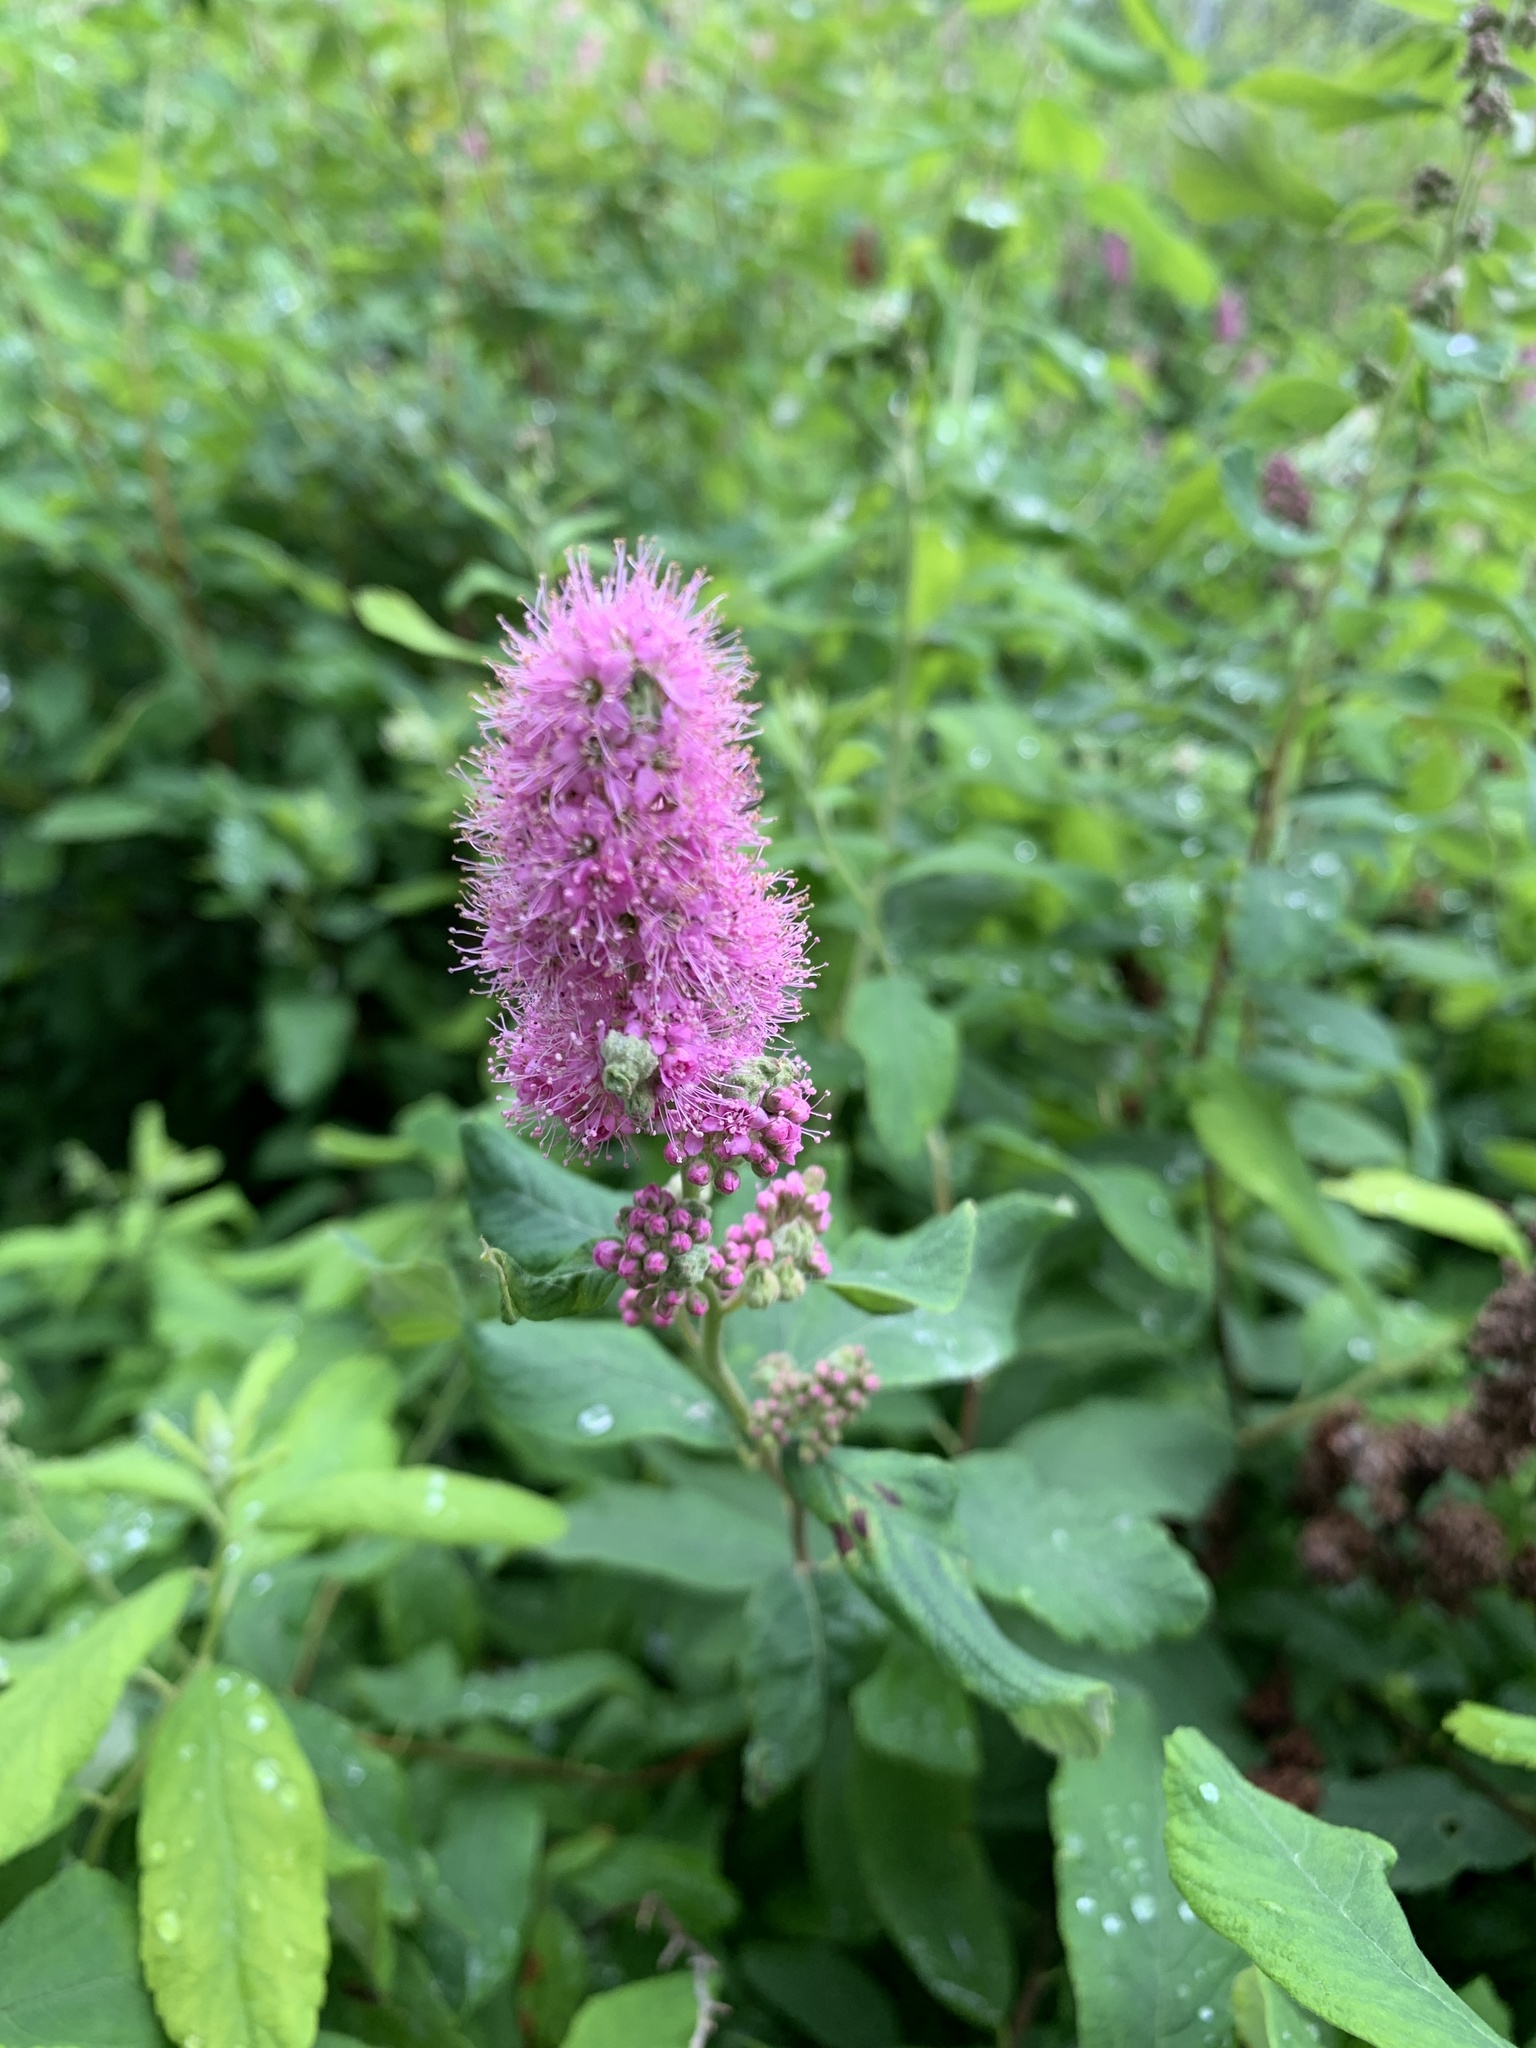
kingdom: Plantae
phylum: Tracheophyta
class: Magnoliopsida
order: Rosales
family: Rosaceae
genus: Spiraea
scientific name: Spiraea douglasii
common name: Steeplebush
